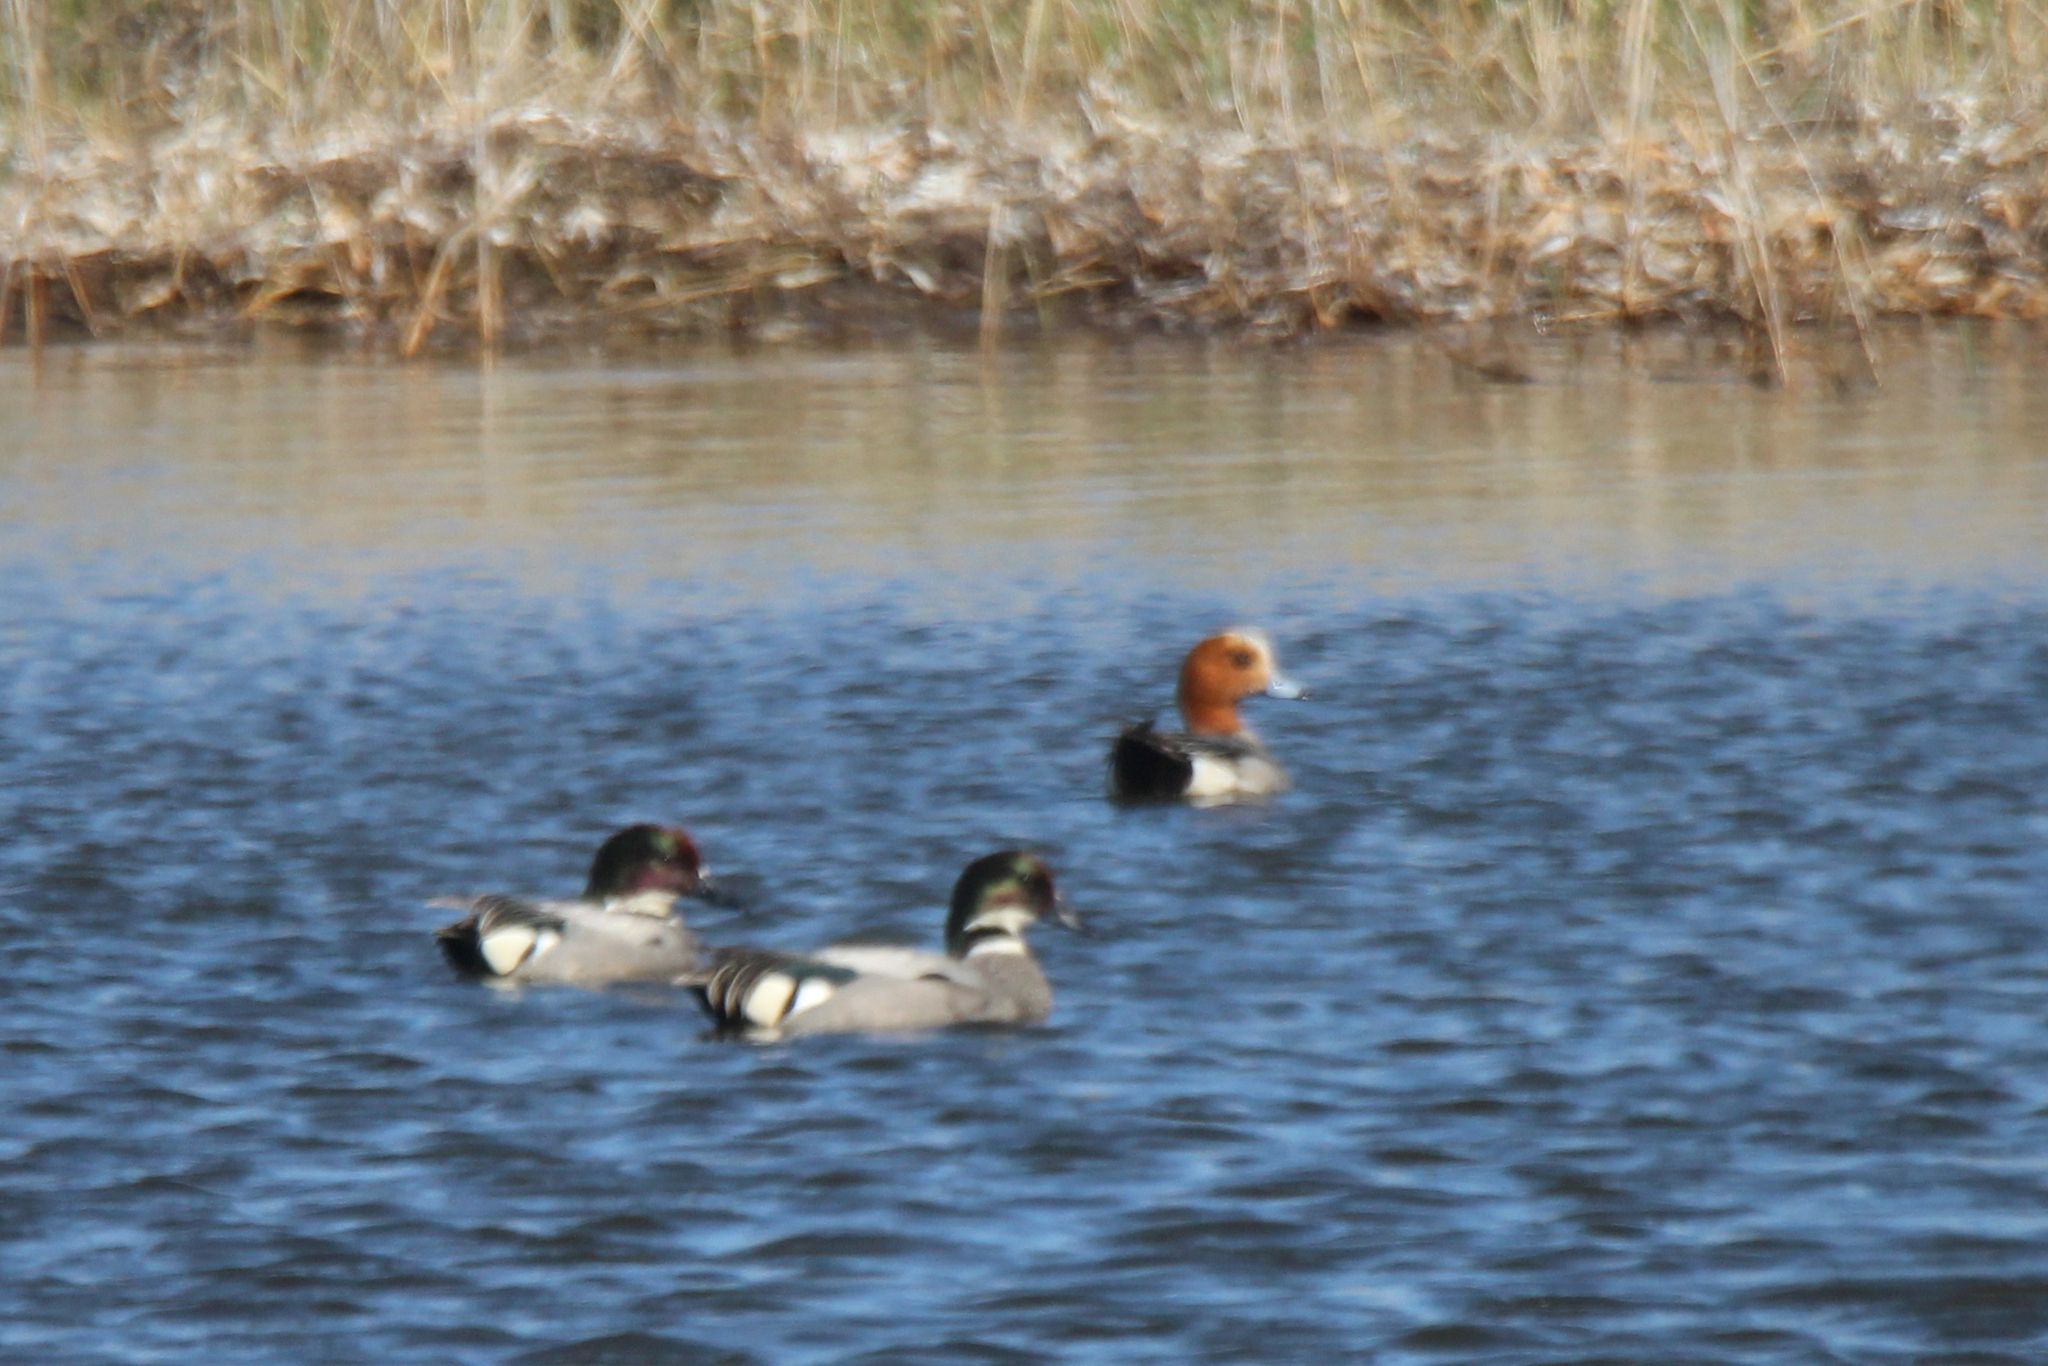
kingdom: Animalia
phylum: Chordata
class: Aves
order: Anseriformes
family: Anatidae
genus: Mareca
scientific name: Mareca falcata
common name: Falcated duck
